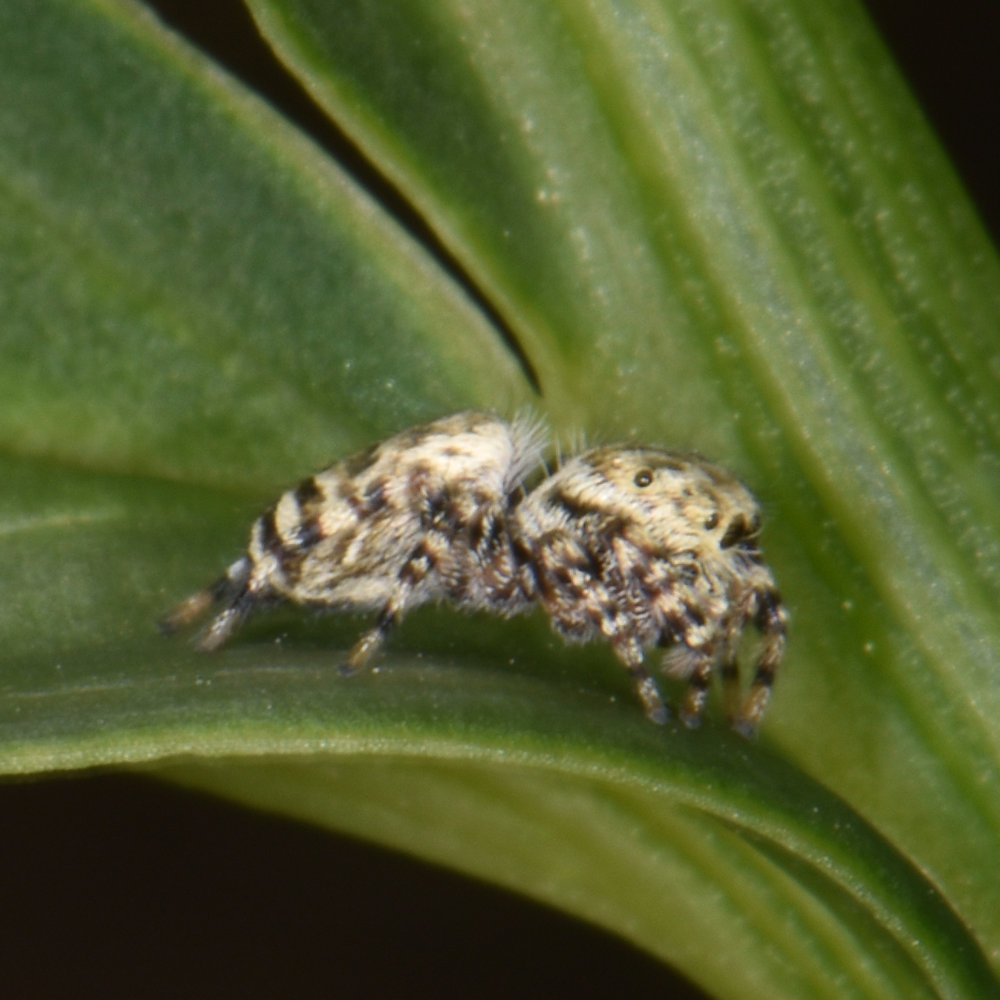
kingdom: Animalia
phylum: Arthropoda
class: Arachnida
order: Araneae
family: Salticidae
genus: Pelegrina
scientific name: Pelegrina galathea
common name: Jumping spiders
